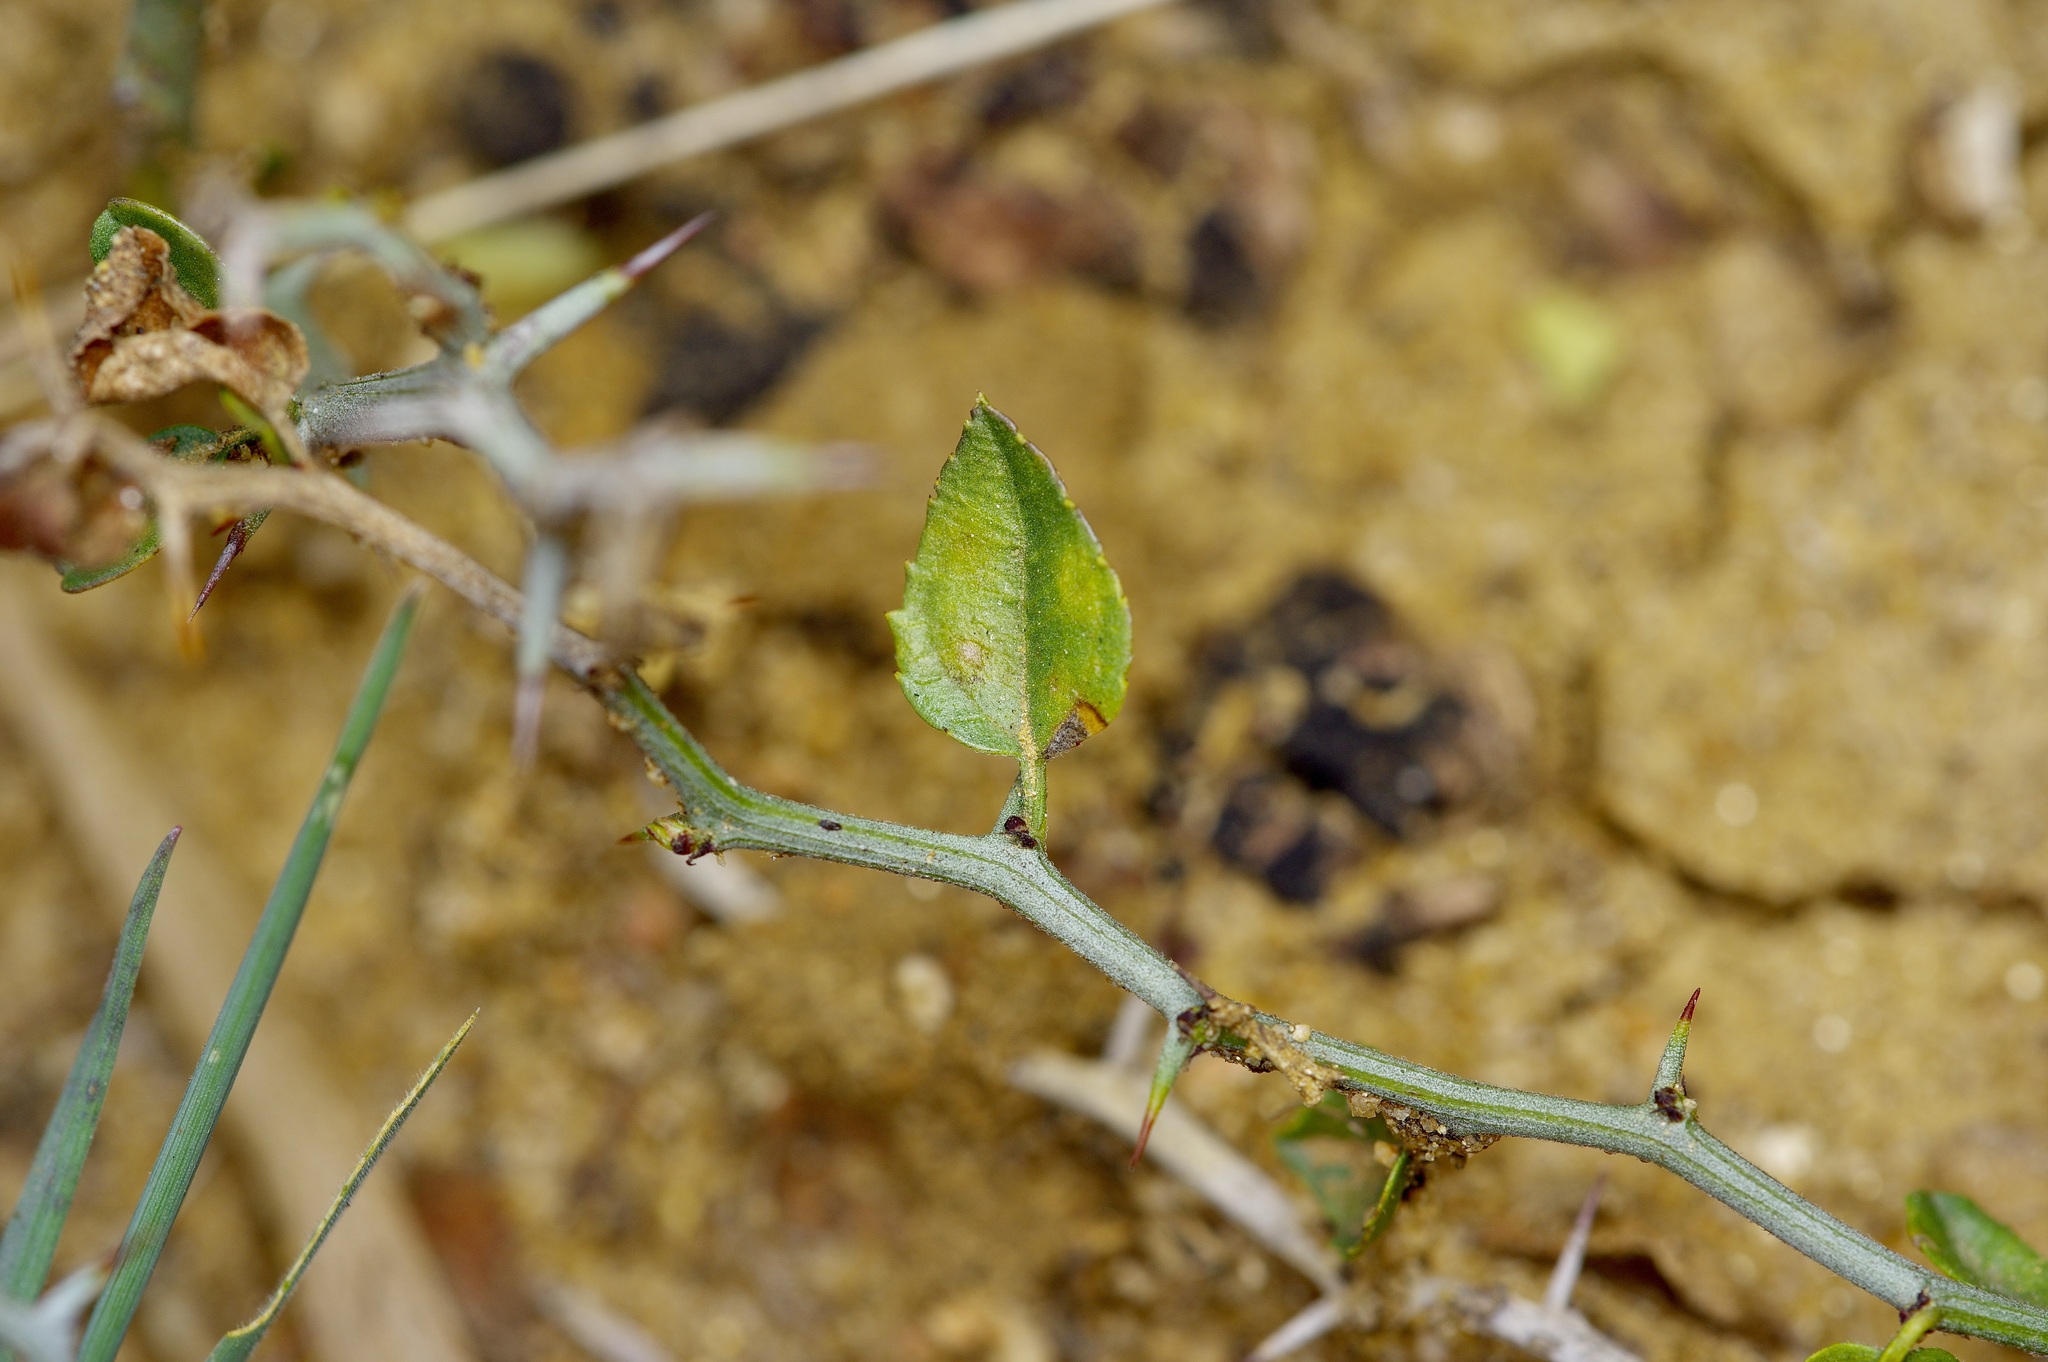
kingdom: Plantae
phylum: Tracheophyta
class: Magnoliopsida
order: Rosales
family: Rhamnaceae
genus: Sarcomphalus
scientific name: Sarcomphalus obtusifolius
